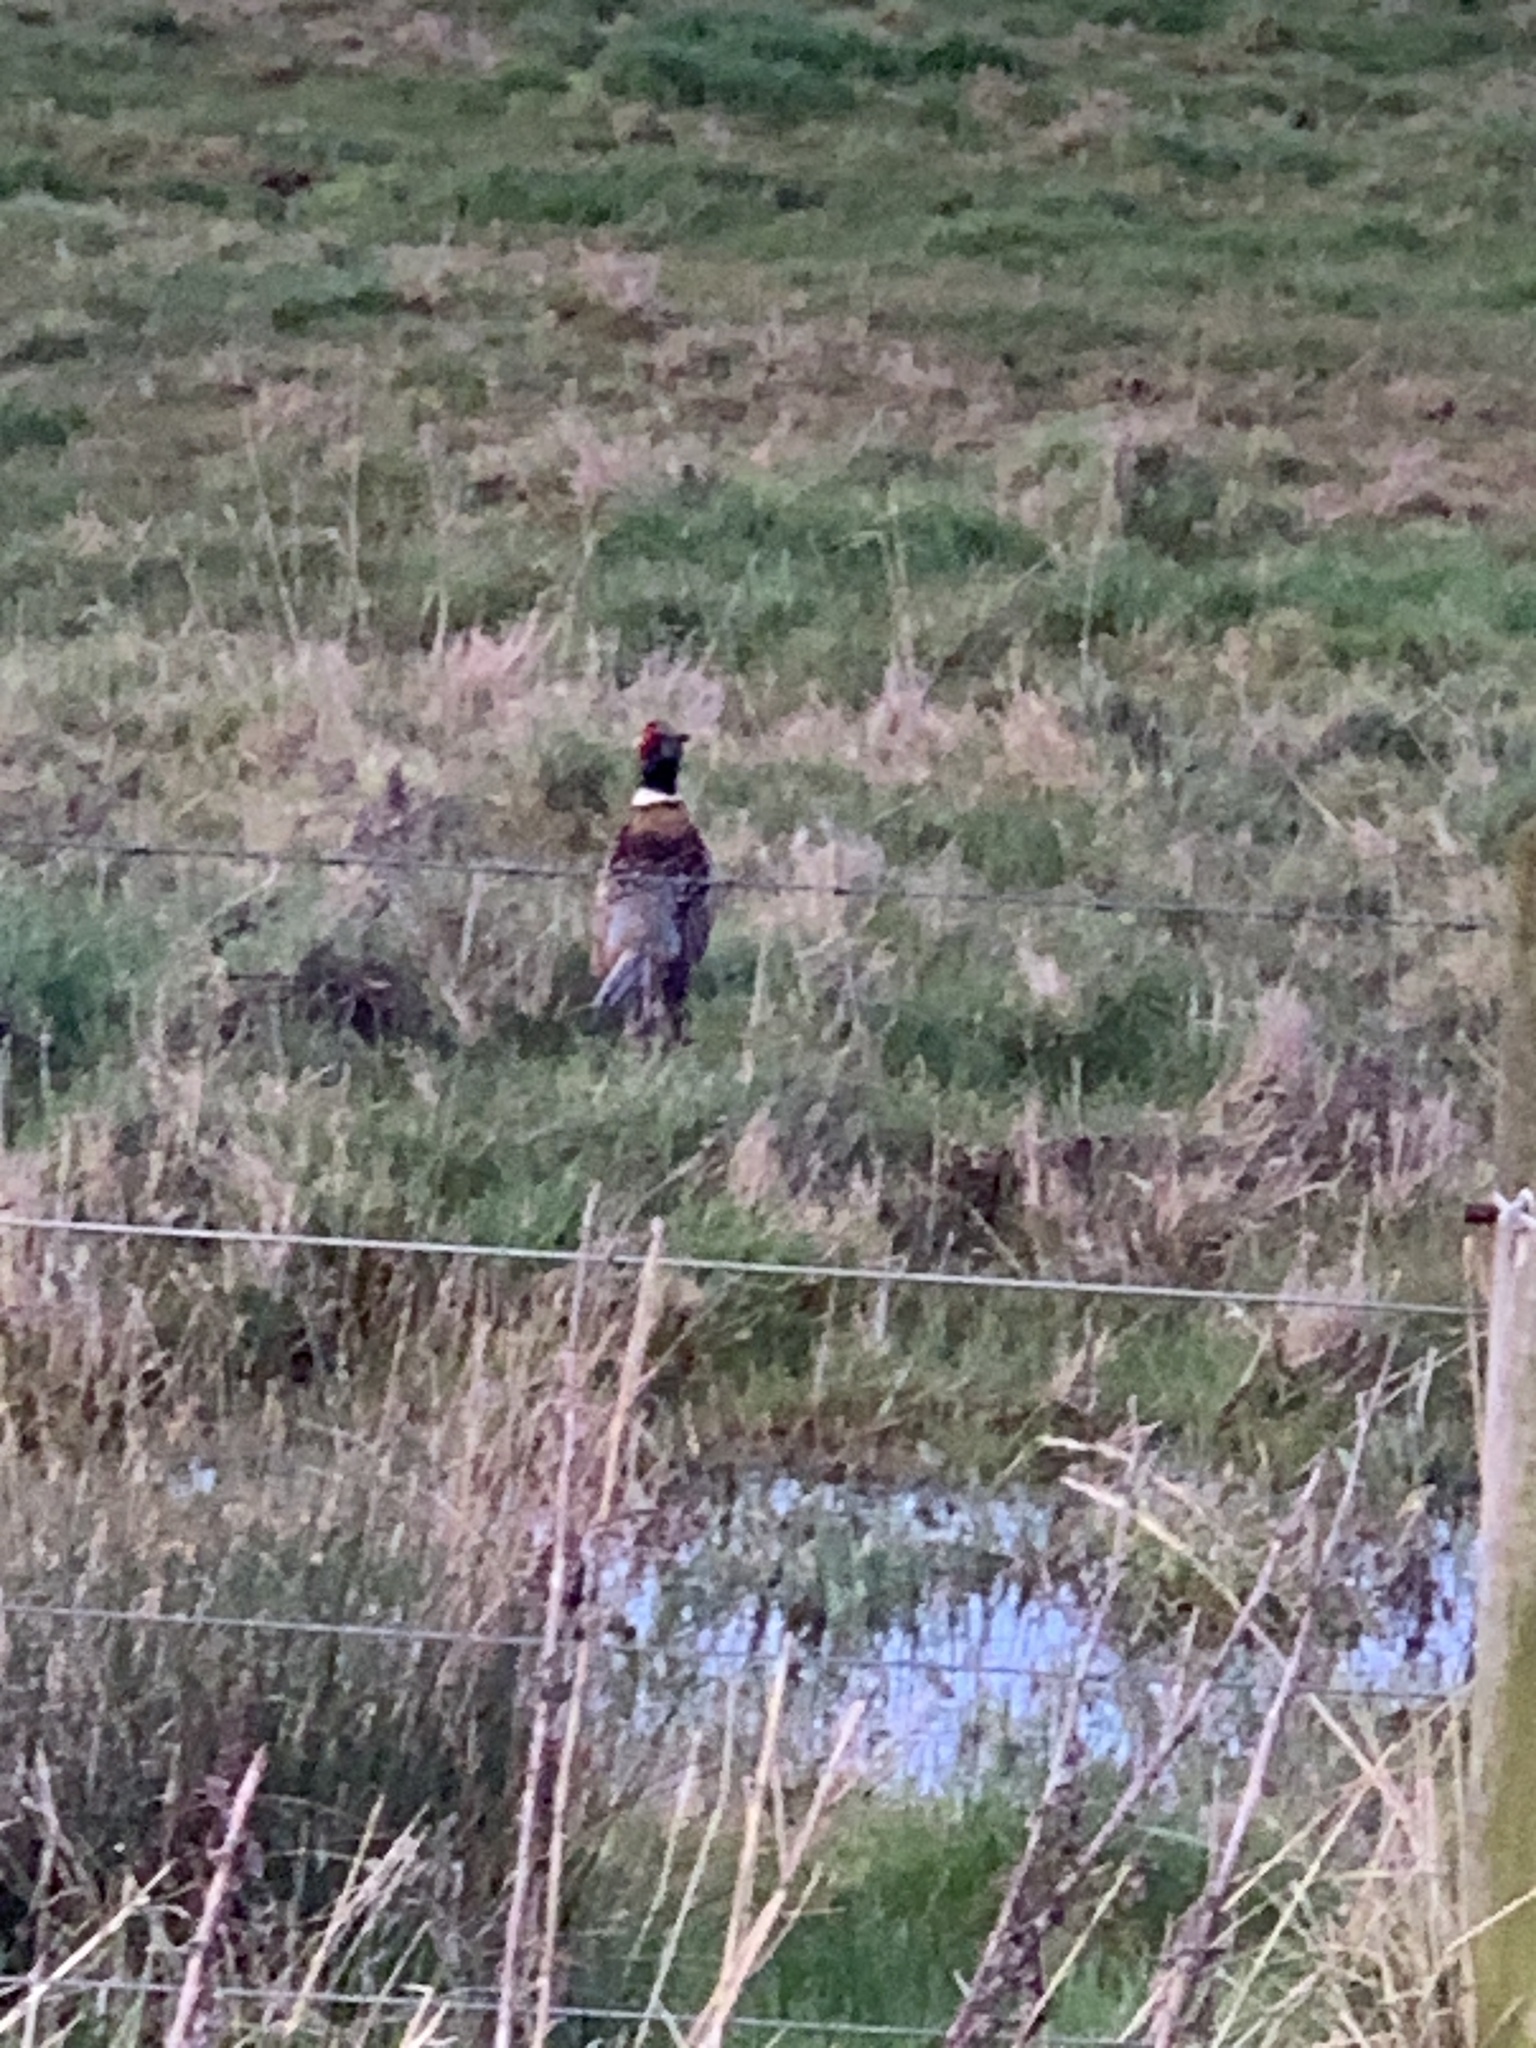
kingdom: Animalia
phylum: Chordata
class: Aves
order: Galliformes
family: Phasianidae
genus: Phasianus
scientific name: Phasianus colchicus
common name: Common pheasant
